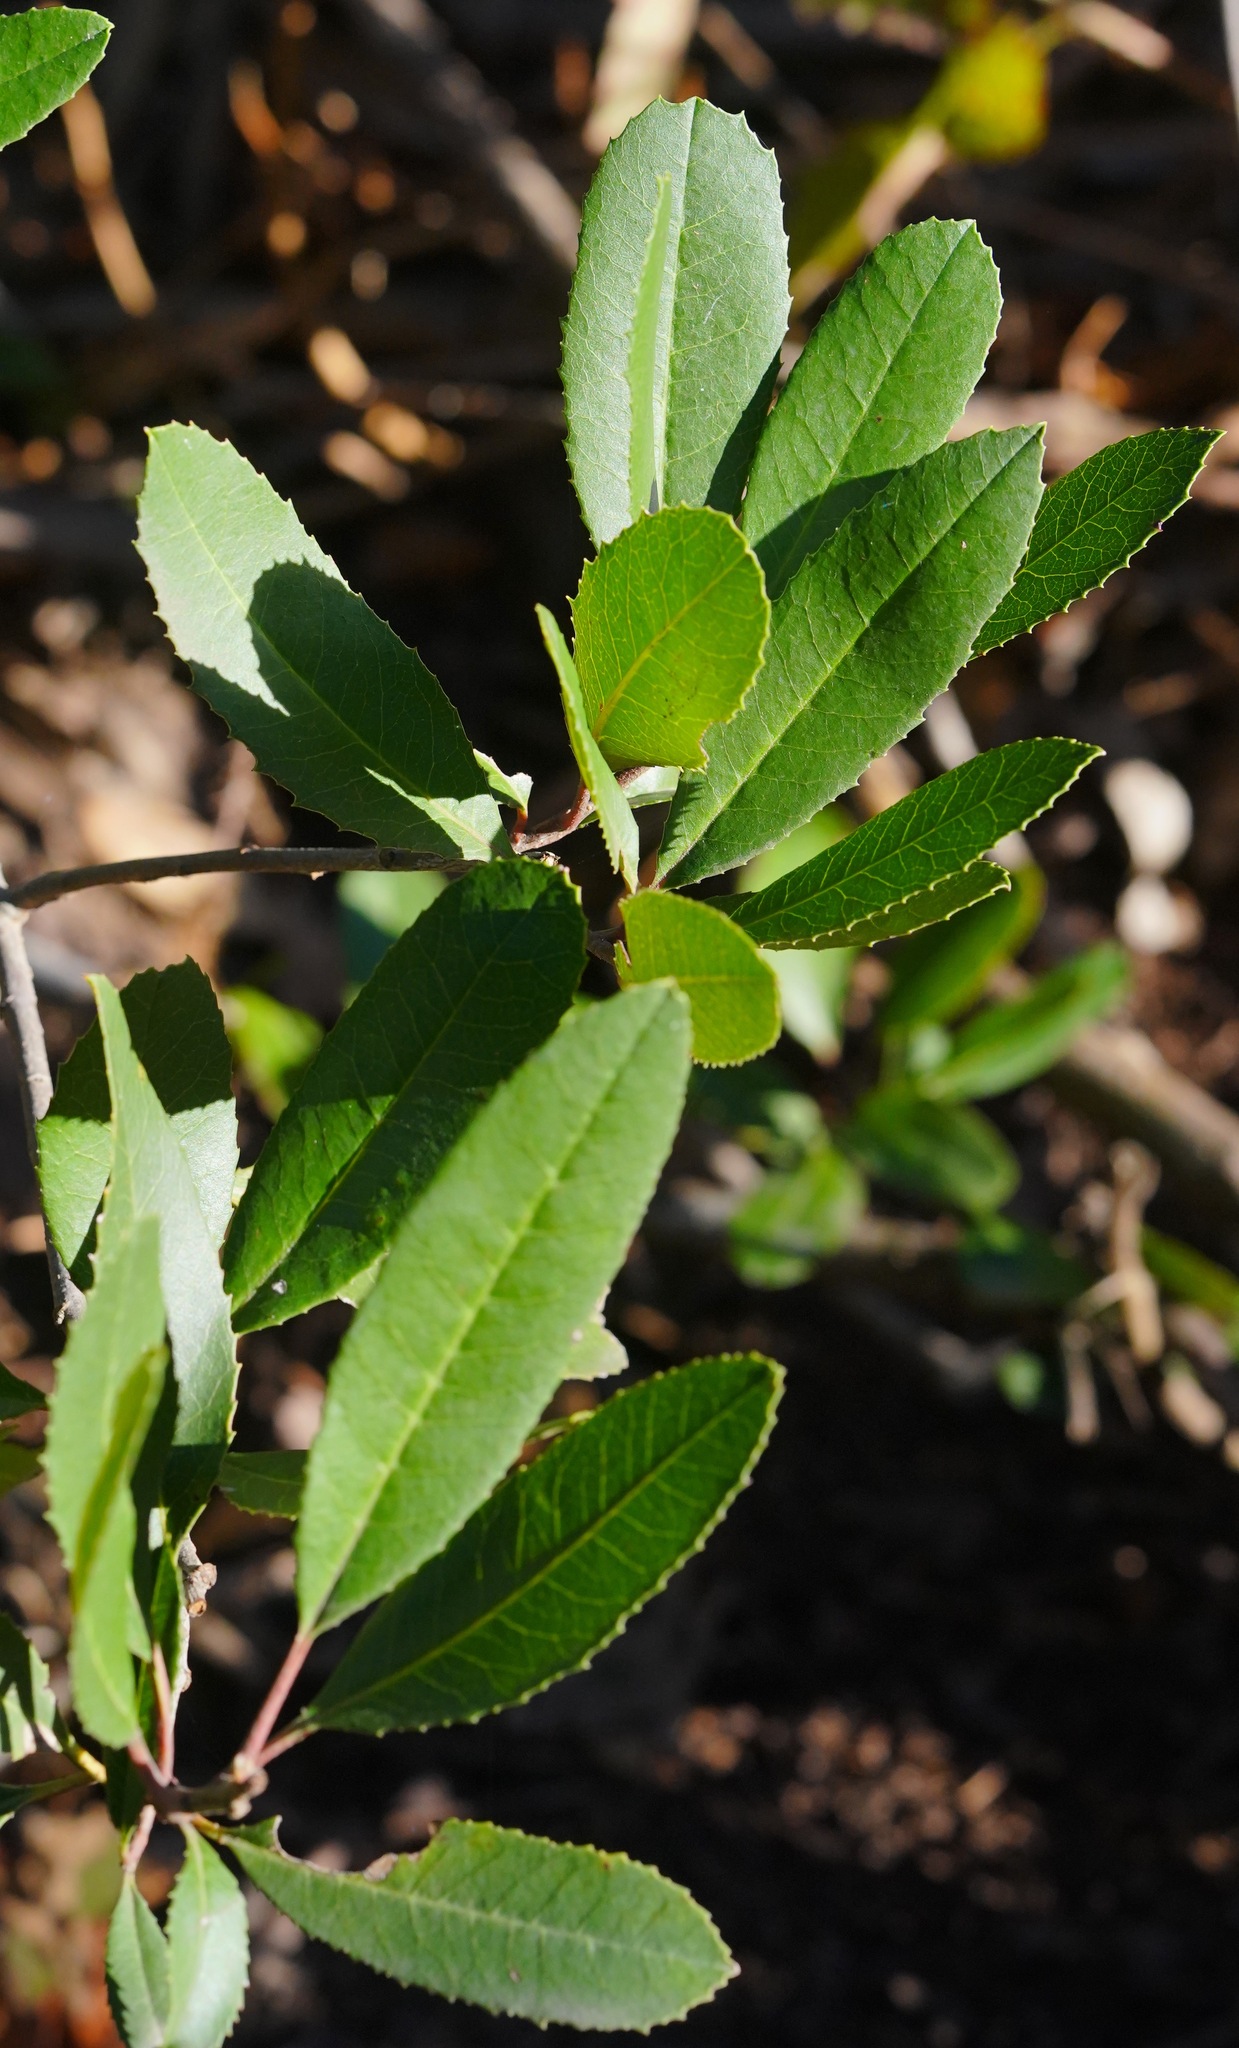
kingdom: Plantae
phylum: Tracheophyta
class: Magnoliopsida
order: Rosales
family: Rosaceae
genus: Heteromeles
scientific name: Heteromeles arbutifolia
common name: California-holly
